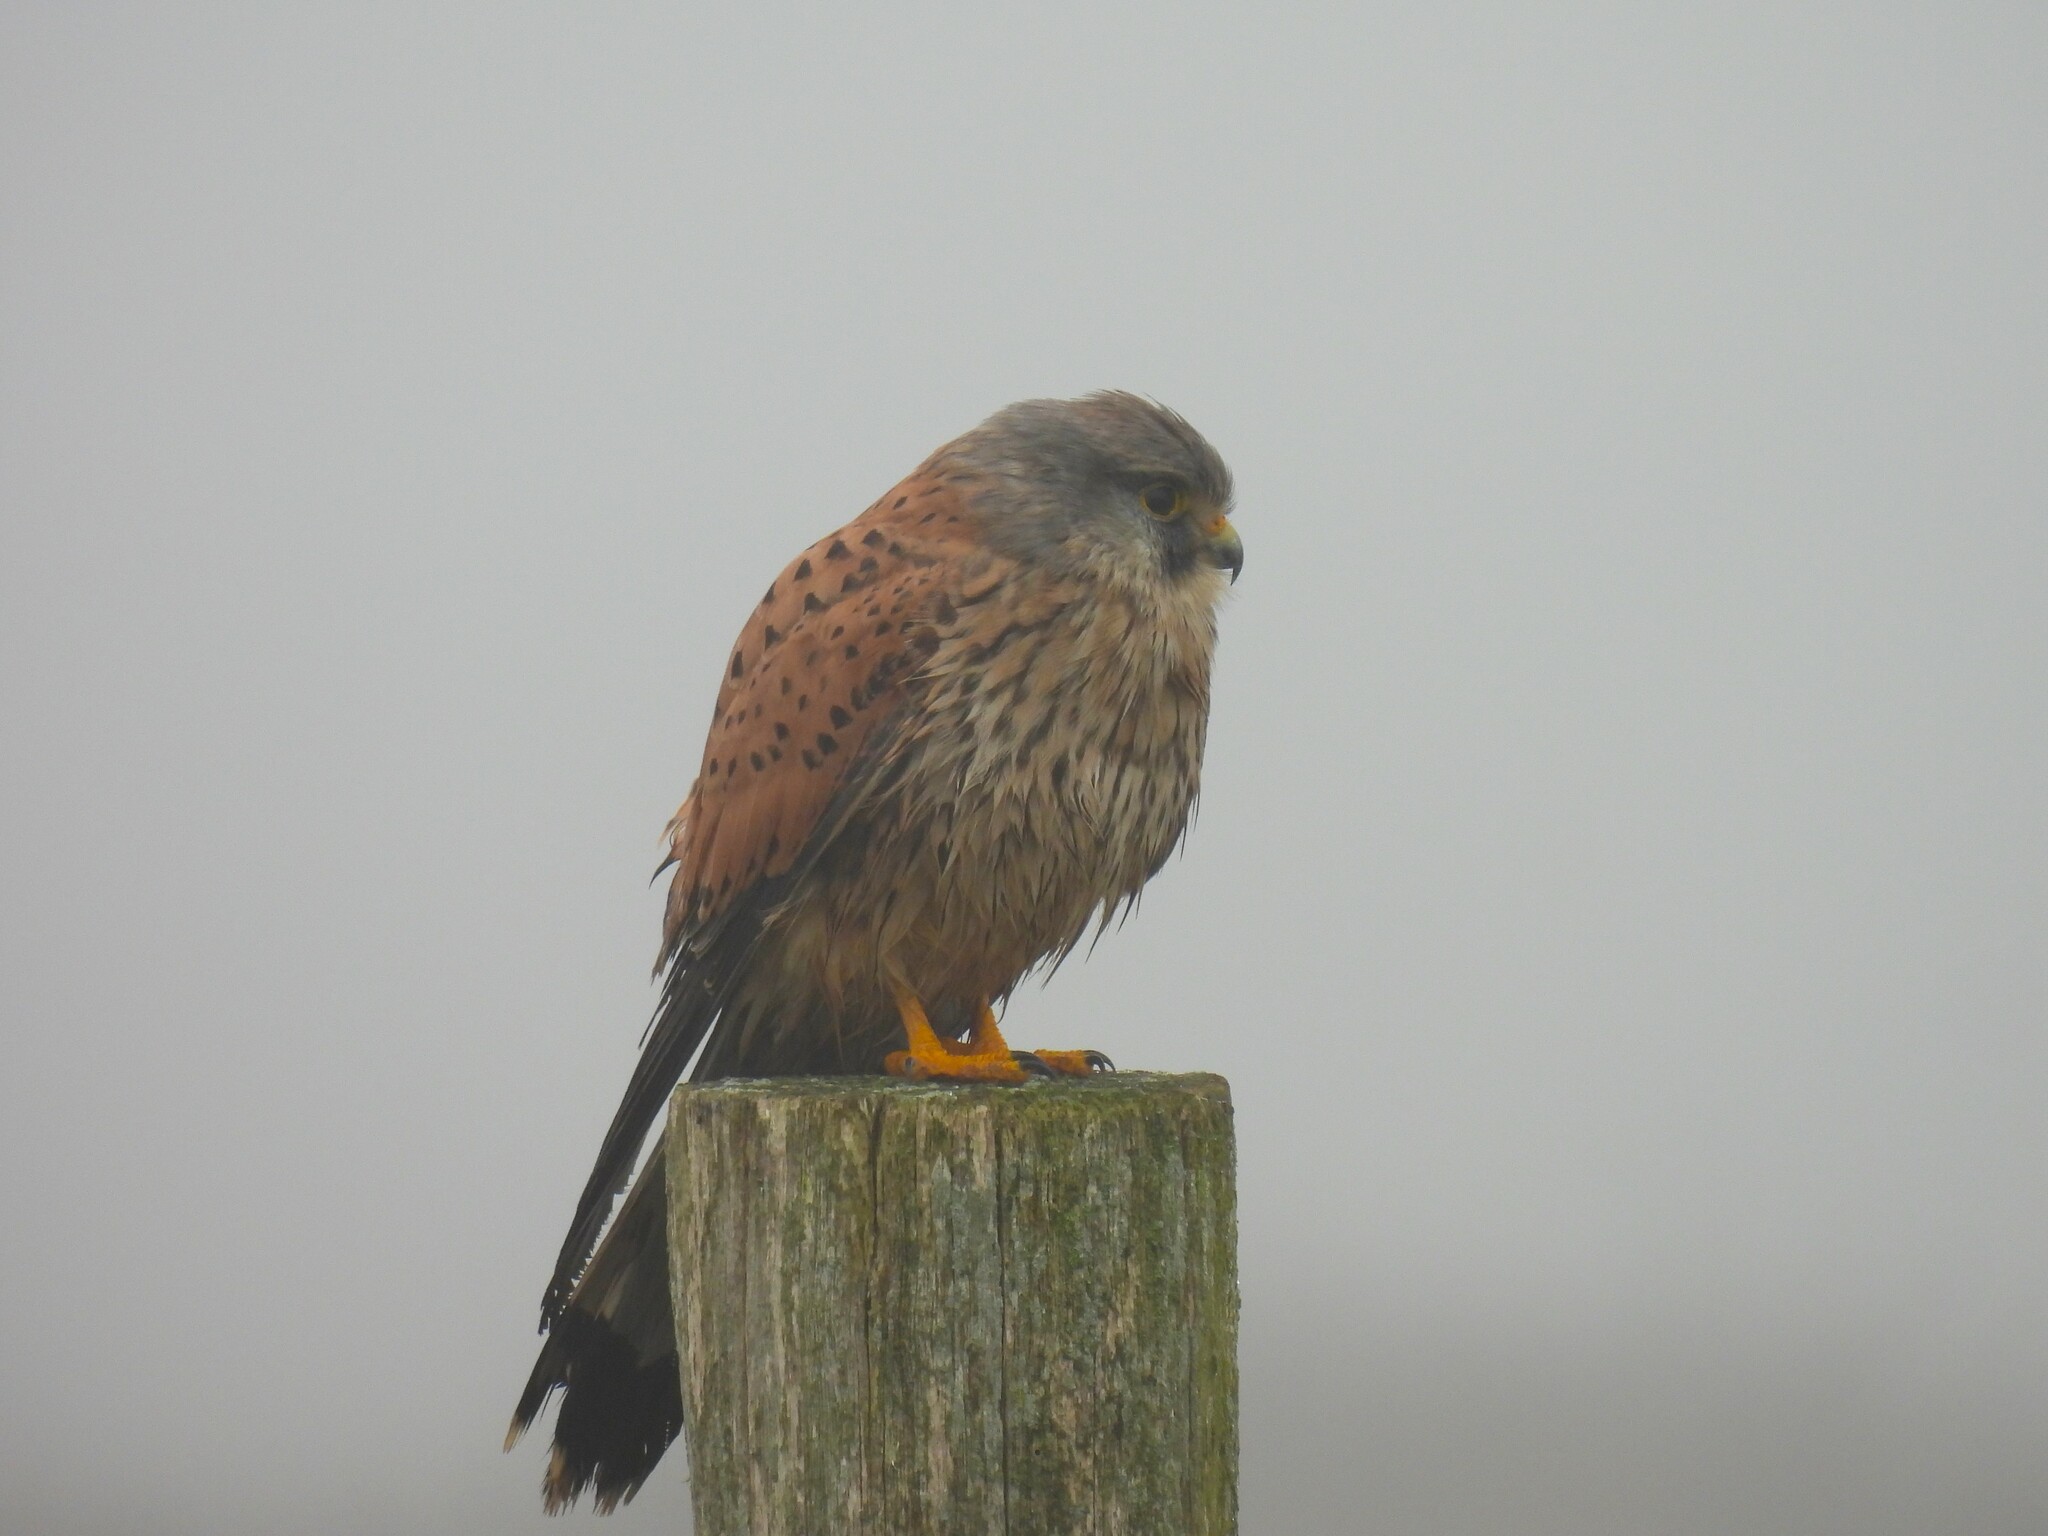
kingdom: Animalia
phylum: Chordata
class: Aves
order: Falconiformes
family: Falconidae
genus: Falco
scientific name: Falco tinnunculus
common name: Common kestrel
